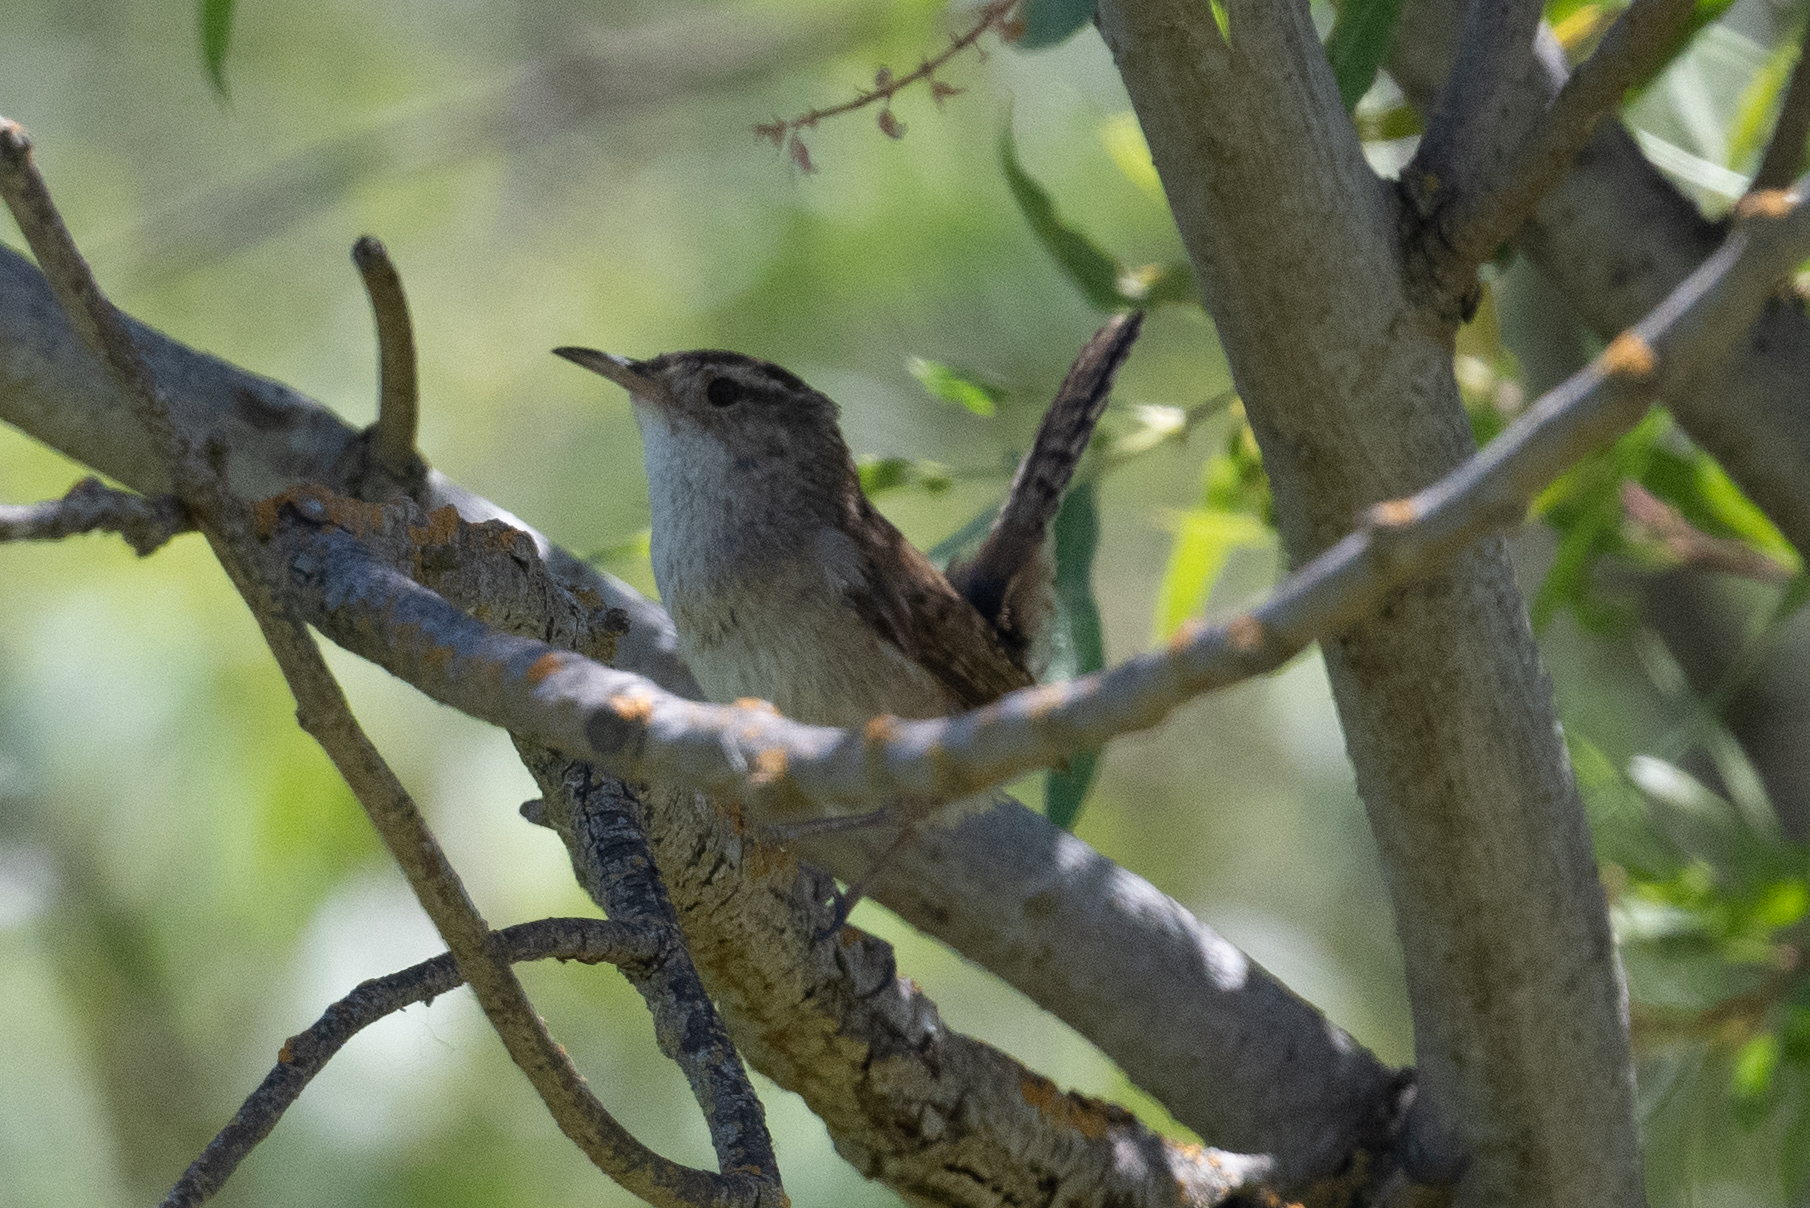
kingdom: Animalia
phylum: Chordata
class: Aves
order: Passeriformes
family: Troglodytidae
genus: Cistothorus
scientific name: Cistothorus palustris
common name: Marsh wren
